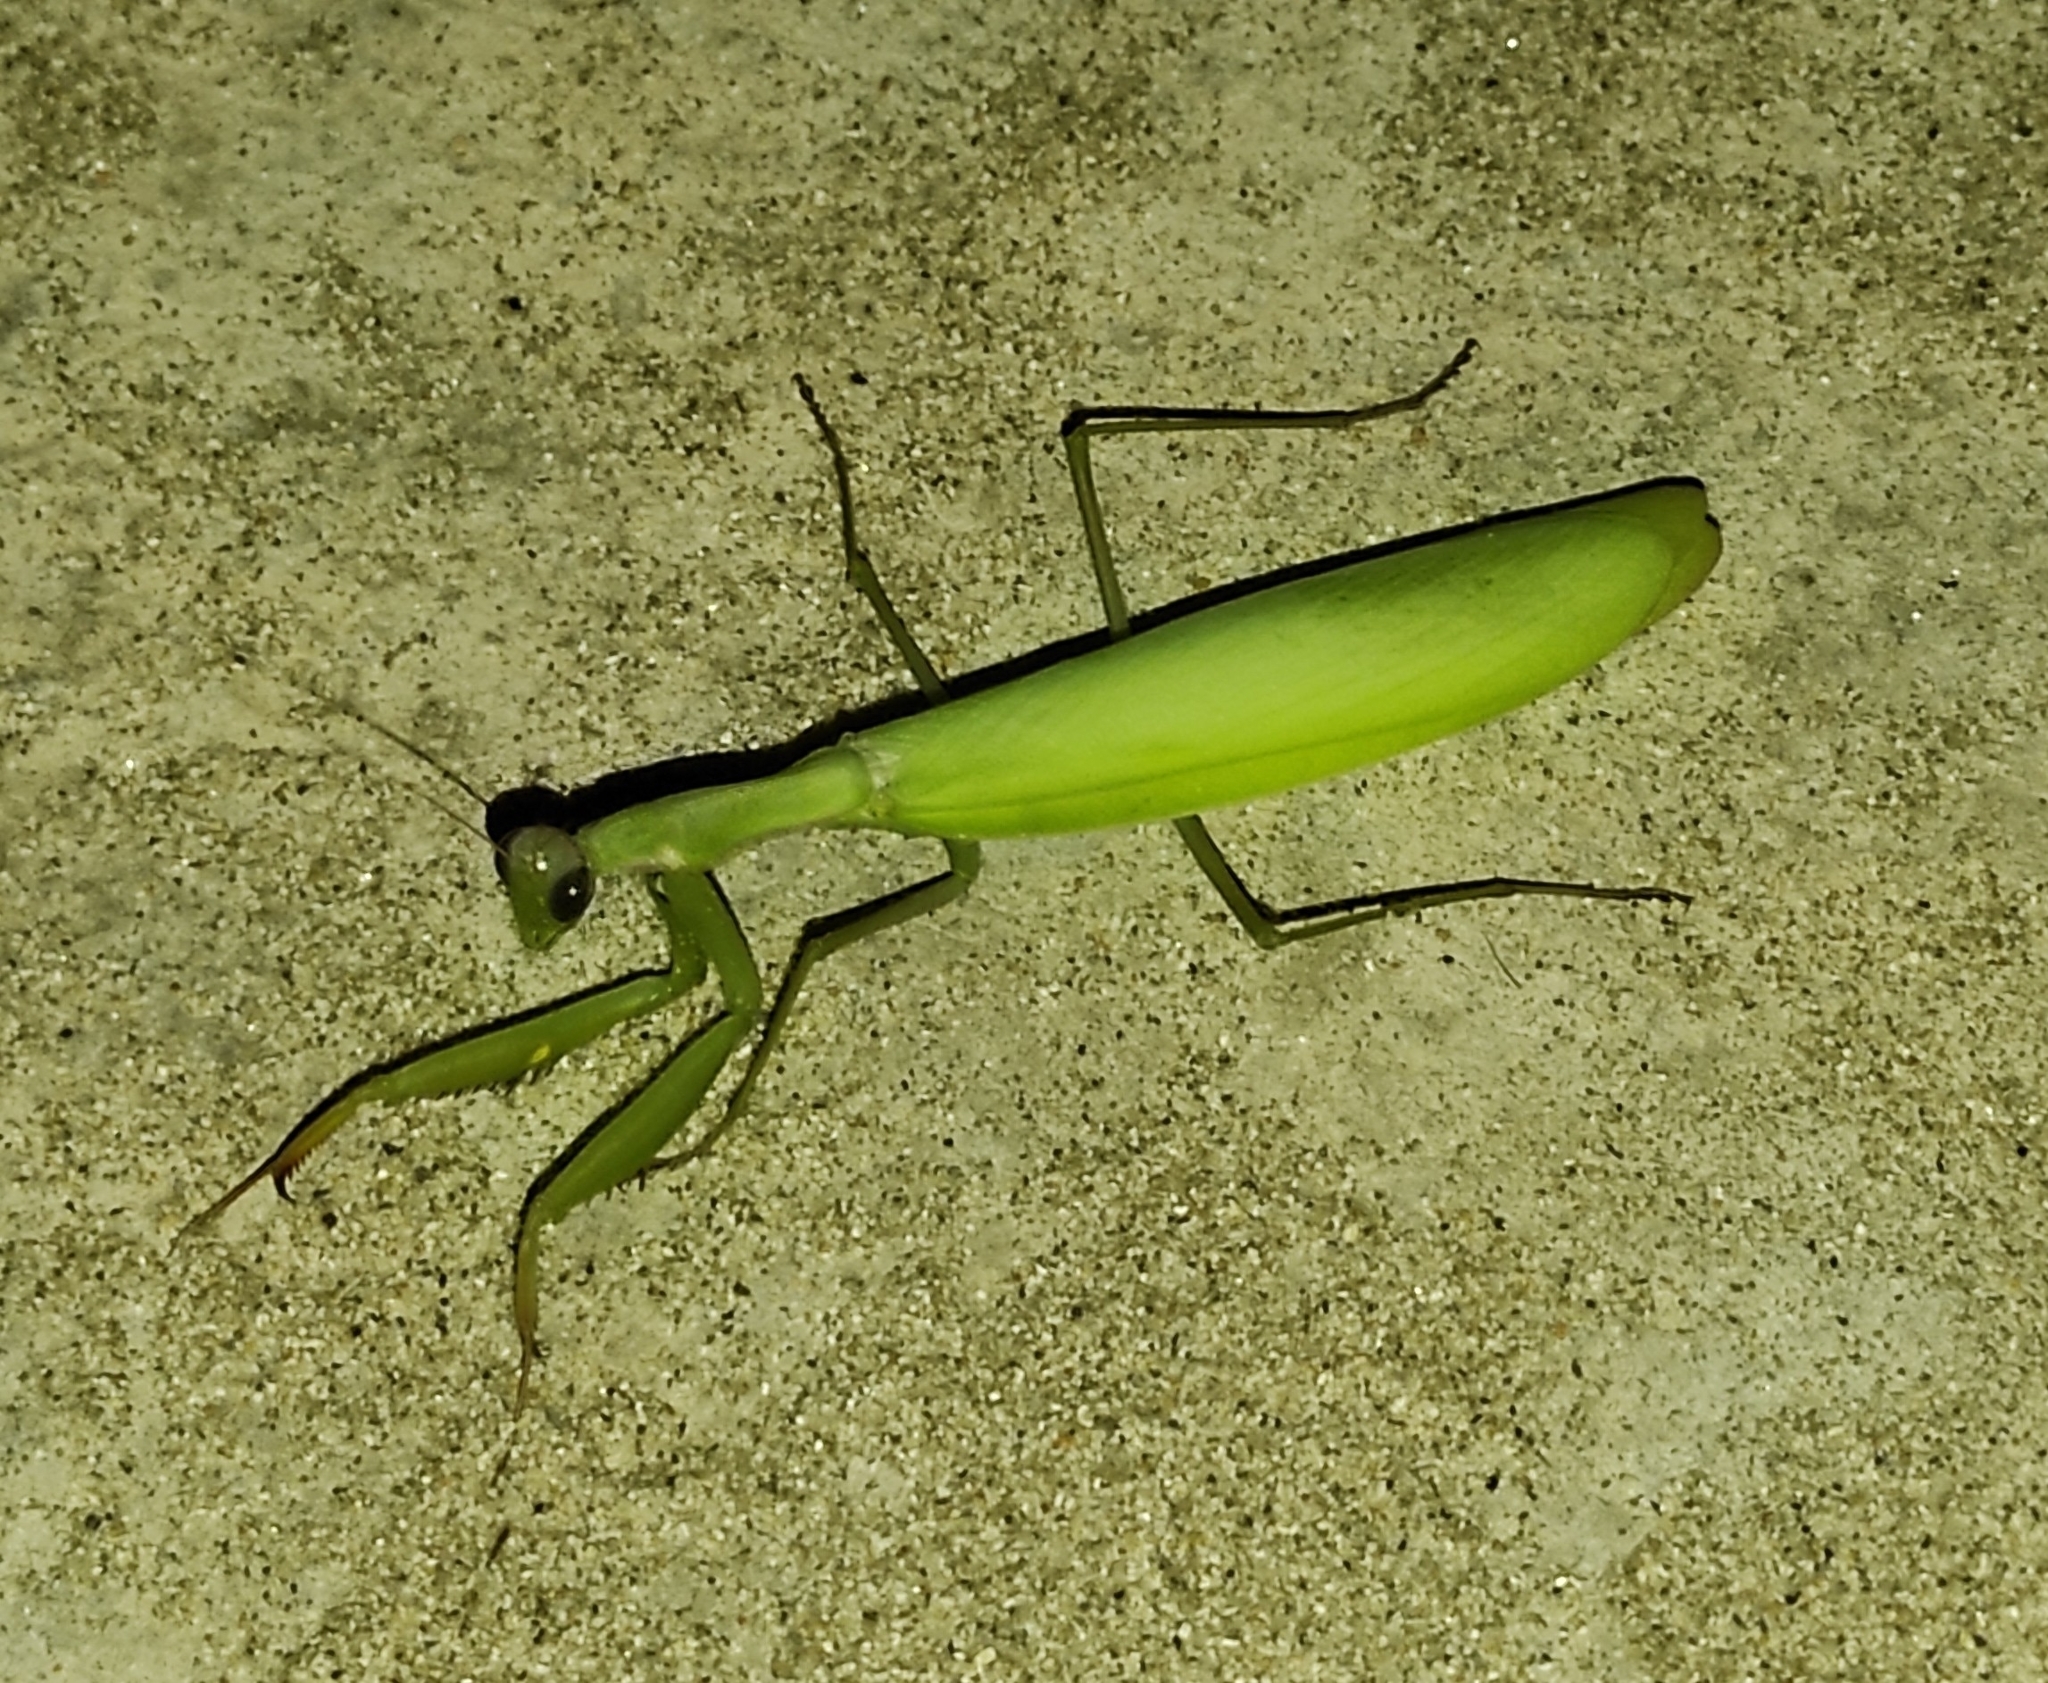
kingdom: Animalia
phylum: Arthropoda
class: Insecta
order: Mantodea
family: Mantidae
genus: Mantis
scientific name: Mantis religiosa
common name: Praying mantis
